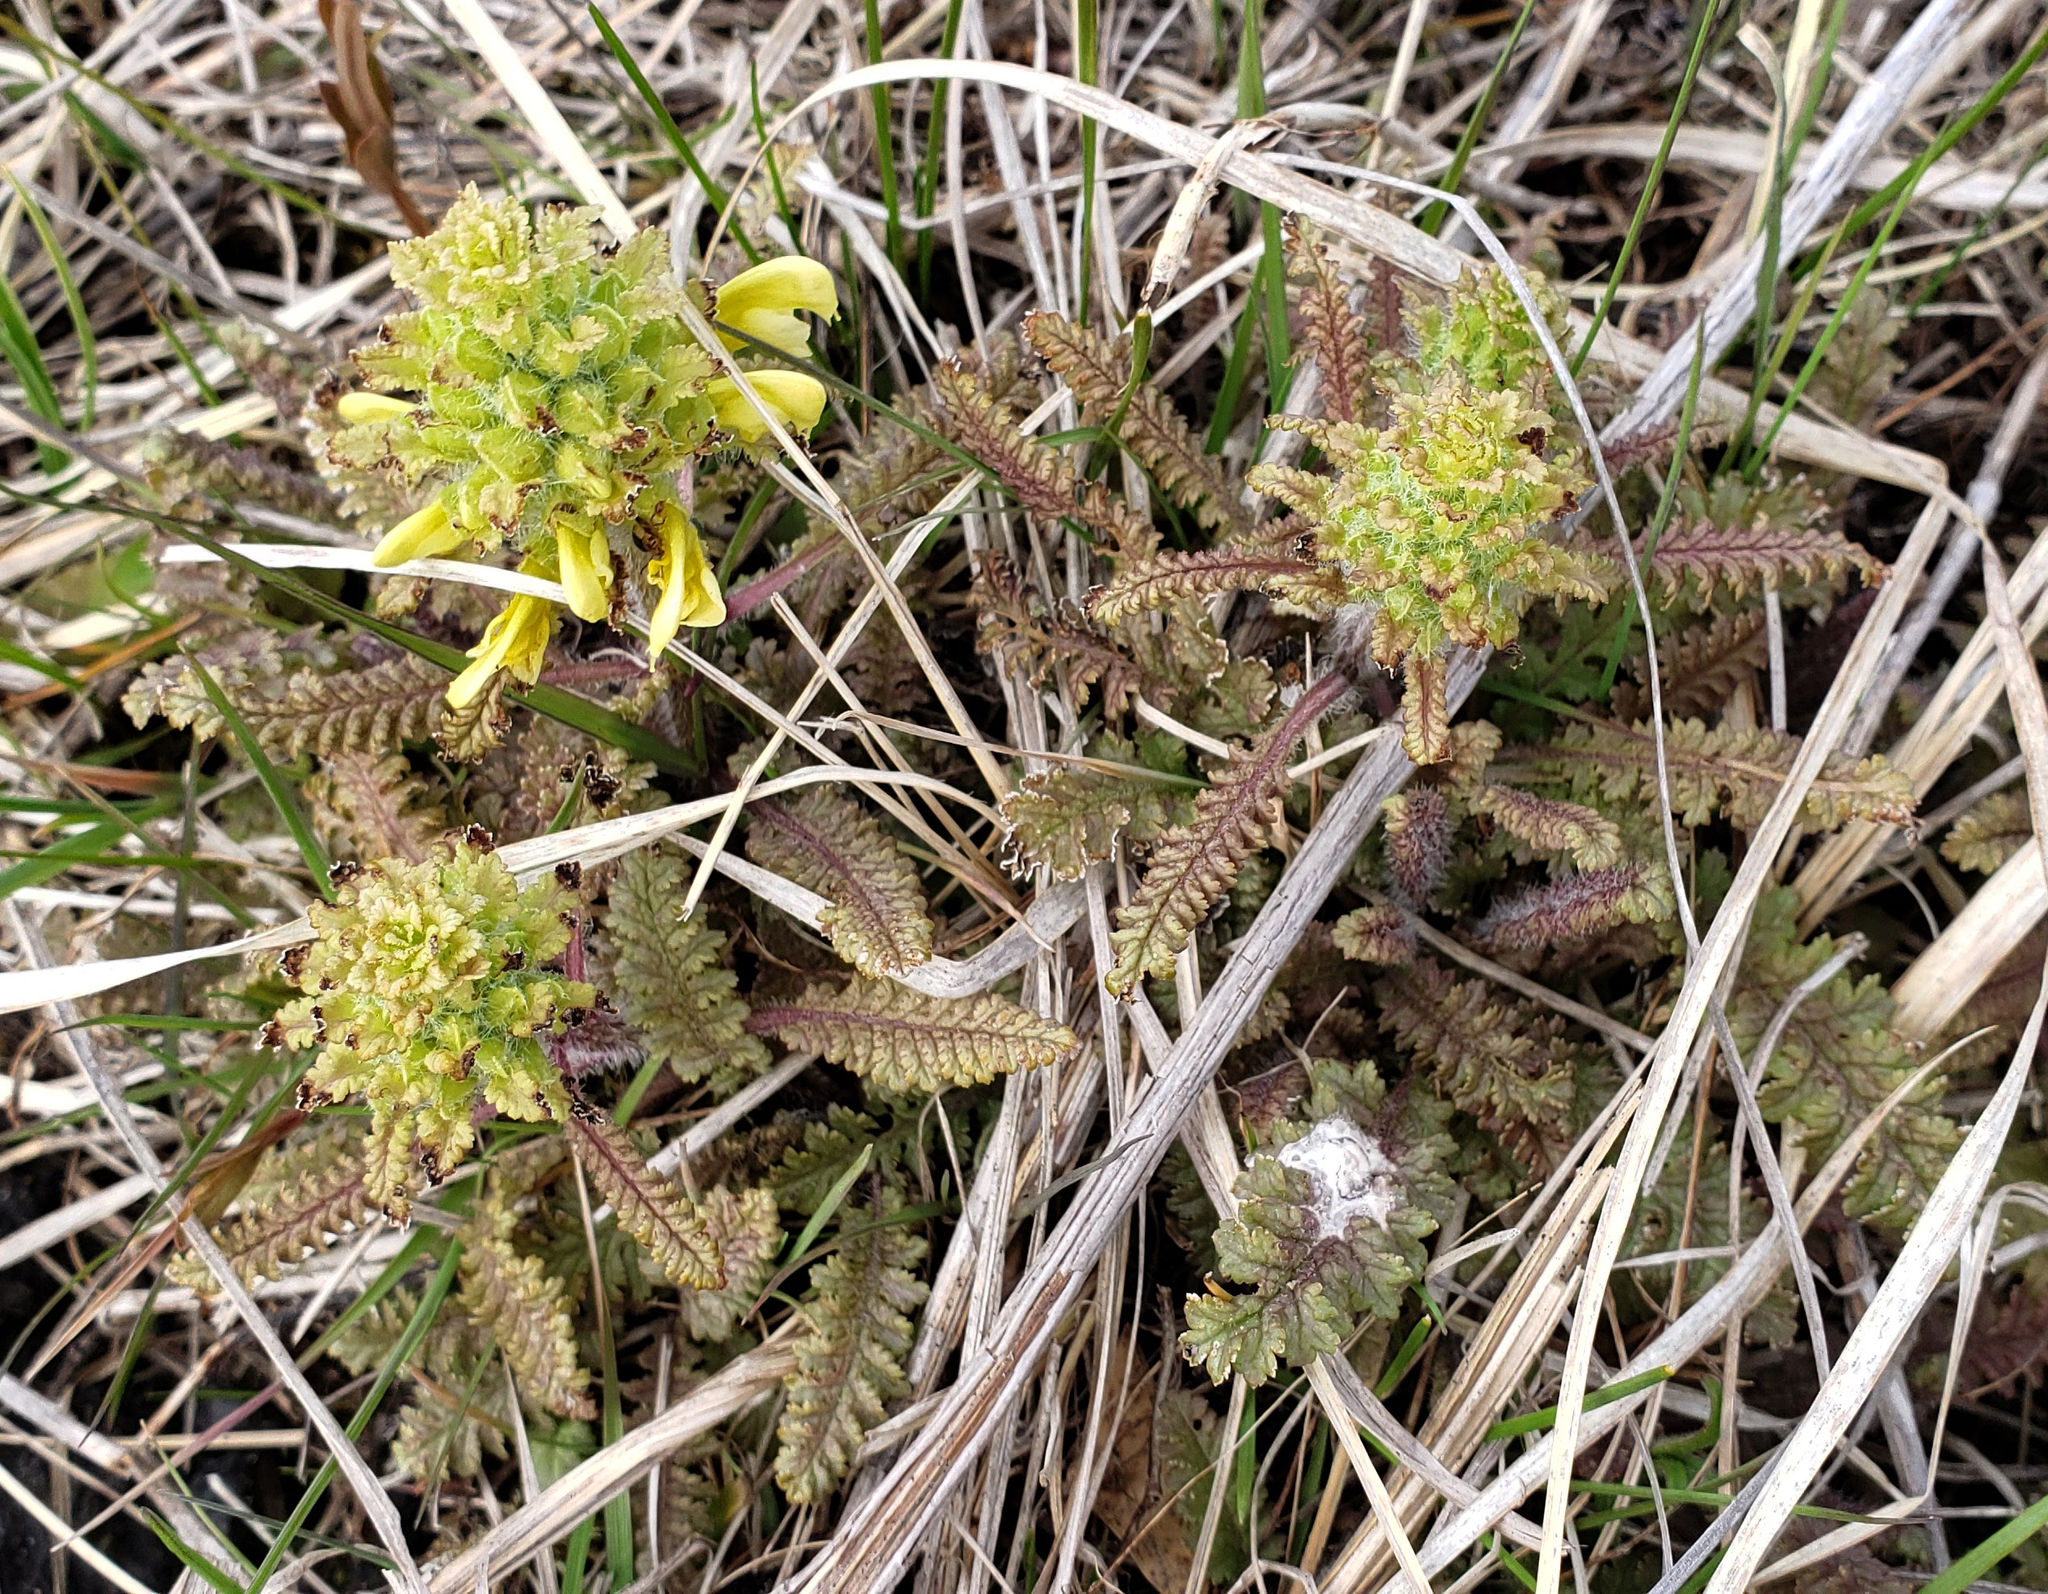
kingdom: Plantae
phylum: Tracheophyta
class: Magnoliopsida
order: Lamiales
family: Orobanchaceae
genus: Pedicularis
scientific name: Pedicularis canadensis
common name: Early lousewort
